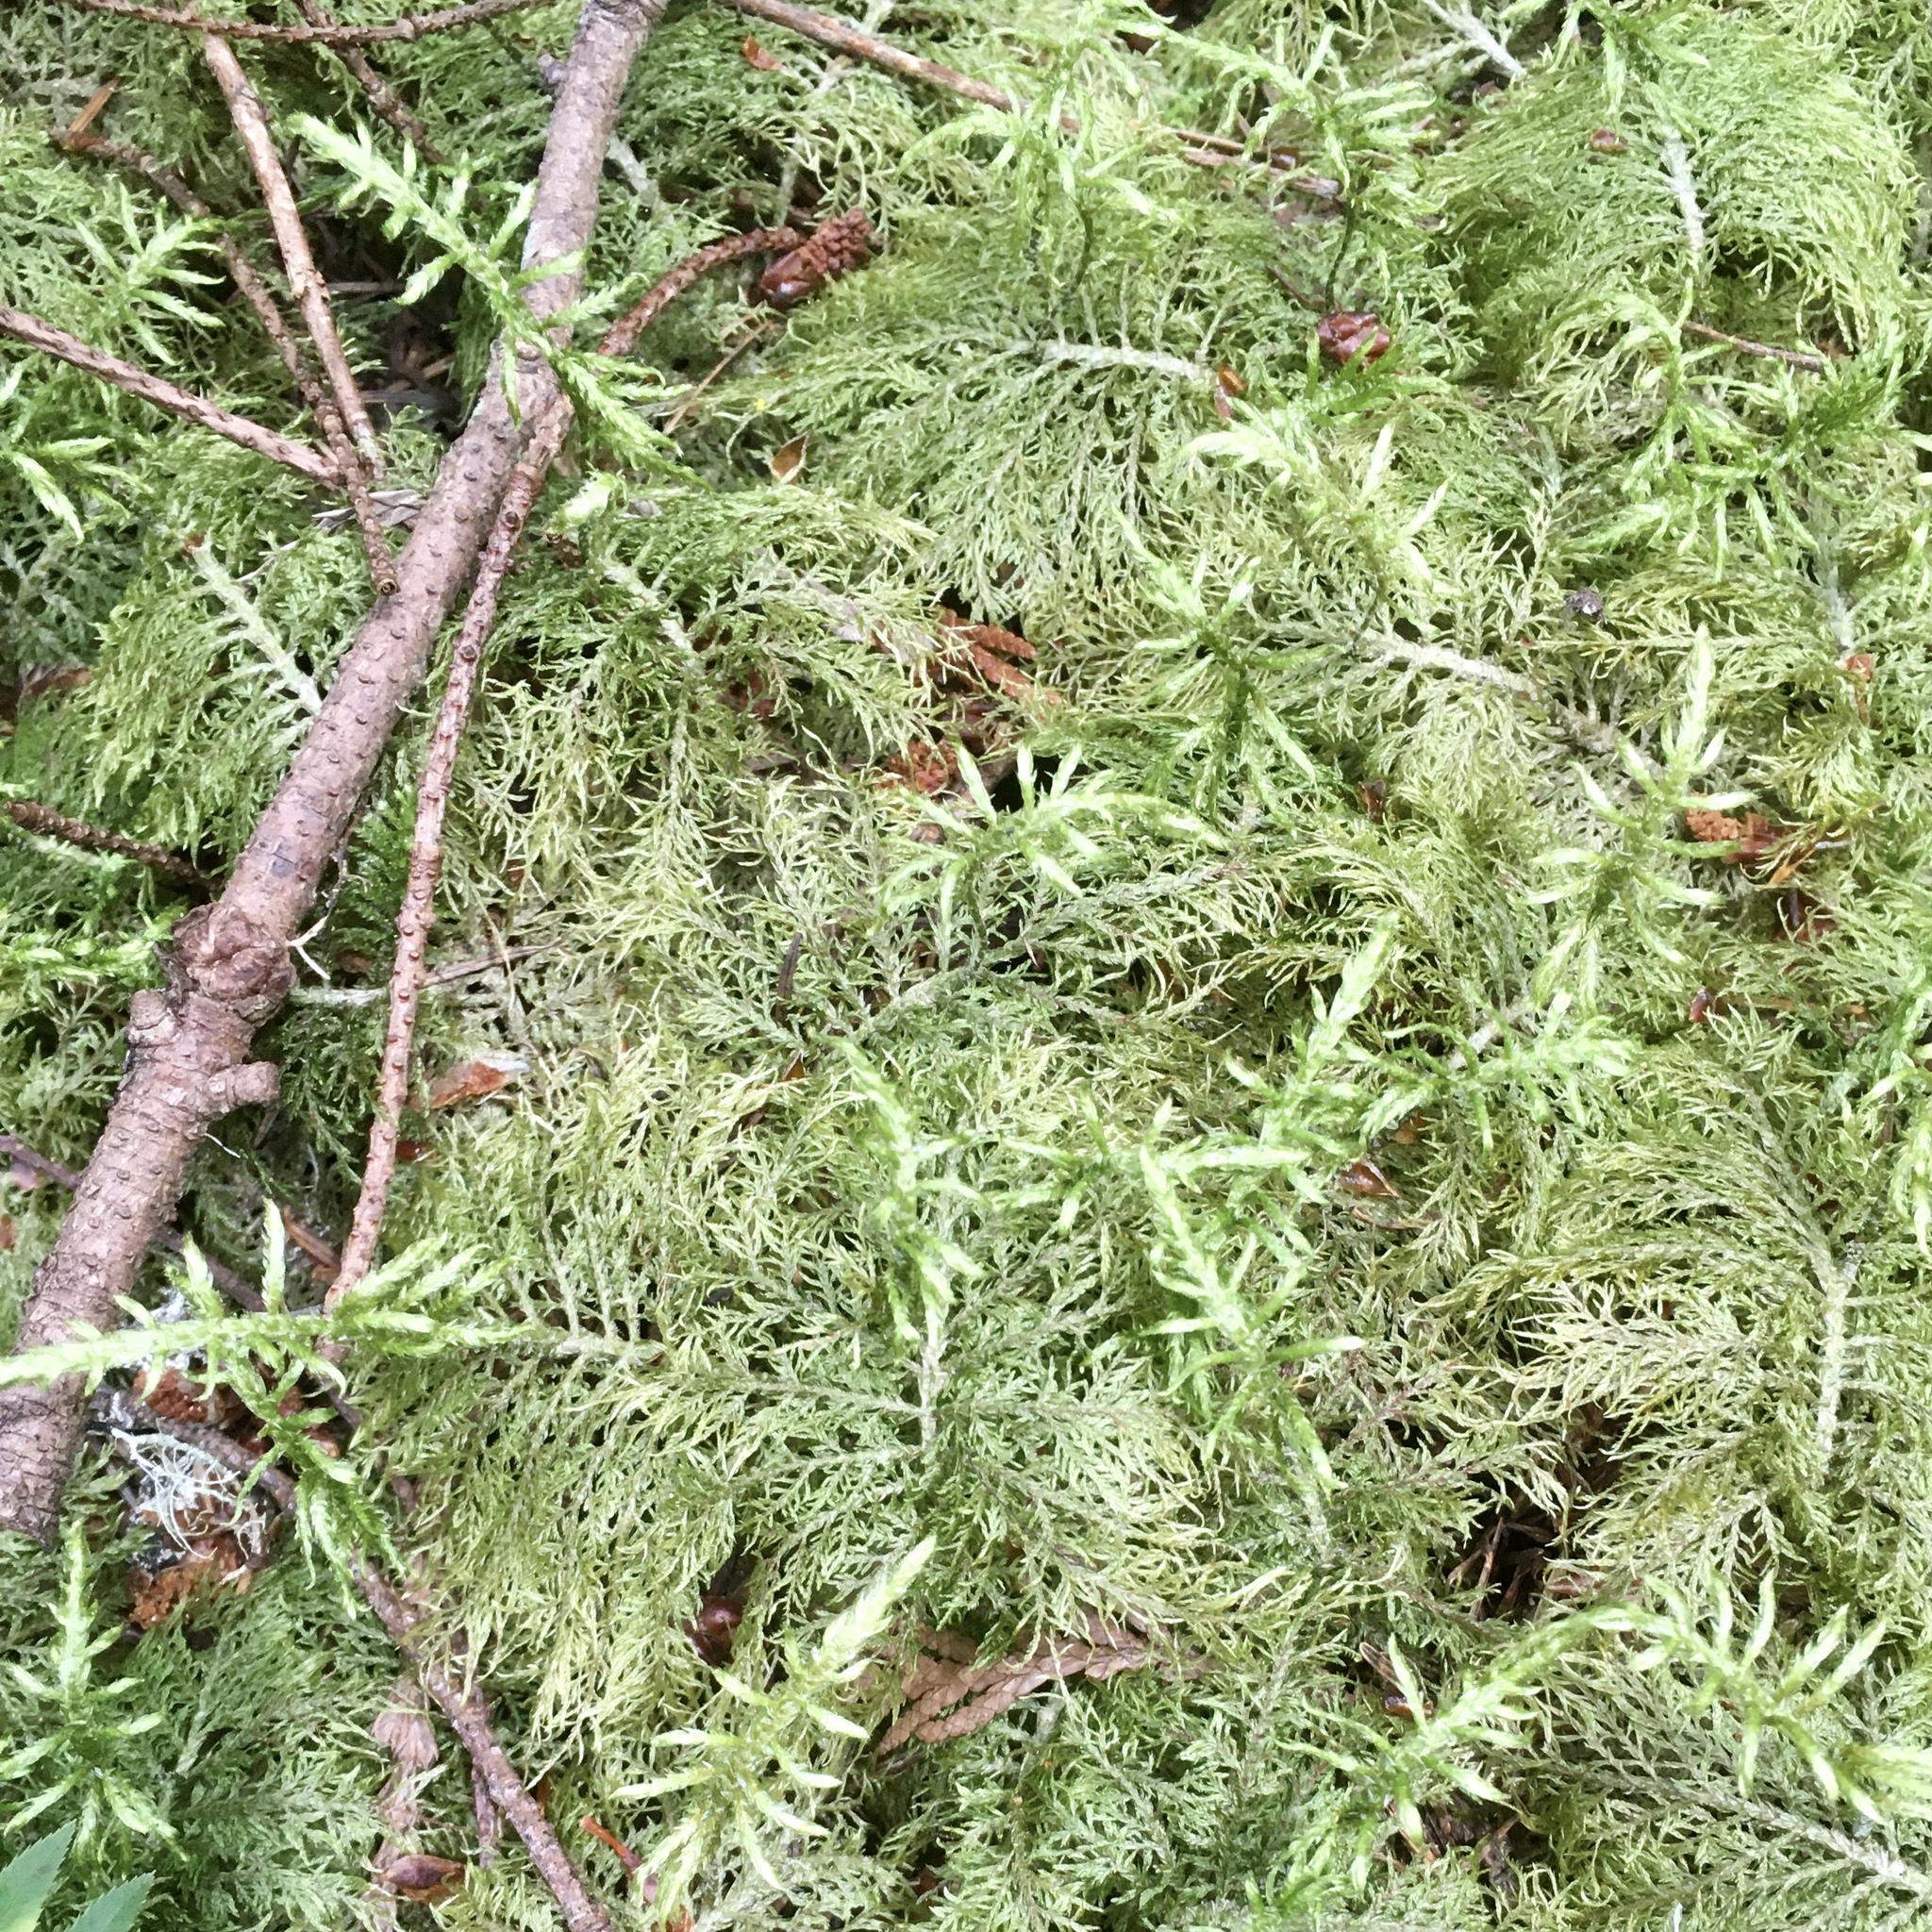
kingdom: Plantae
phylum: Bryophyta
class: Bryopsida
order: Hypnales
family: Hylocomiaceae
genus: Hylocomium
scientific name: Hylocomium splendens
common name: Stairstep moss
